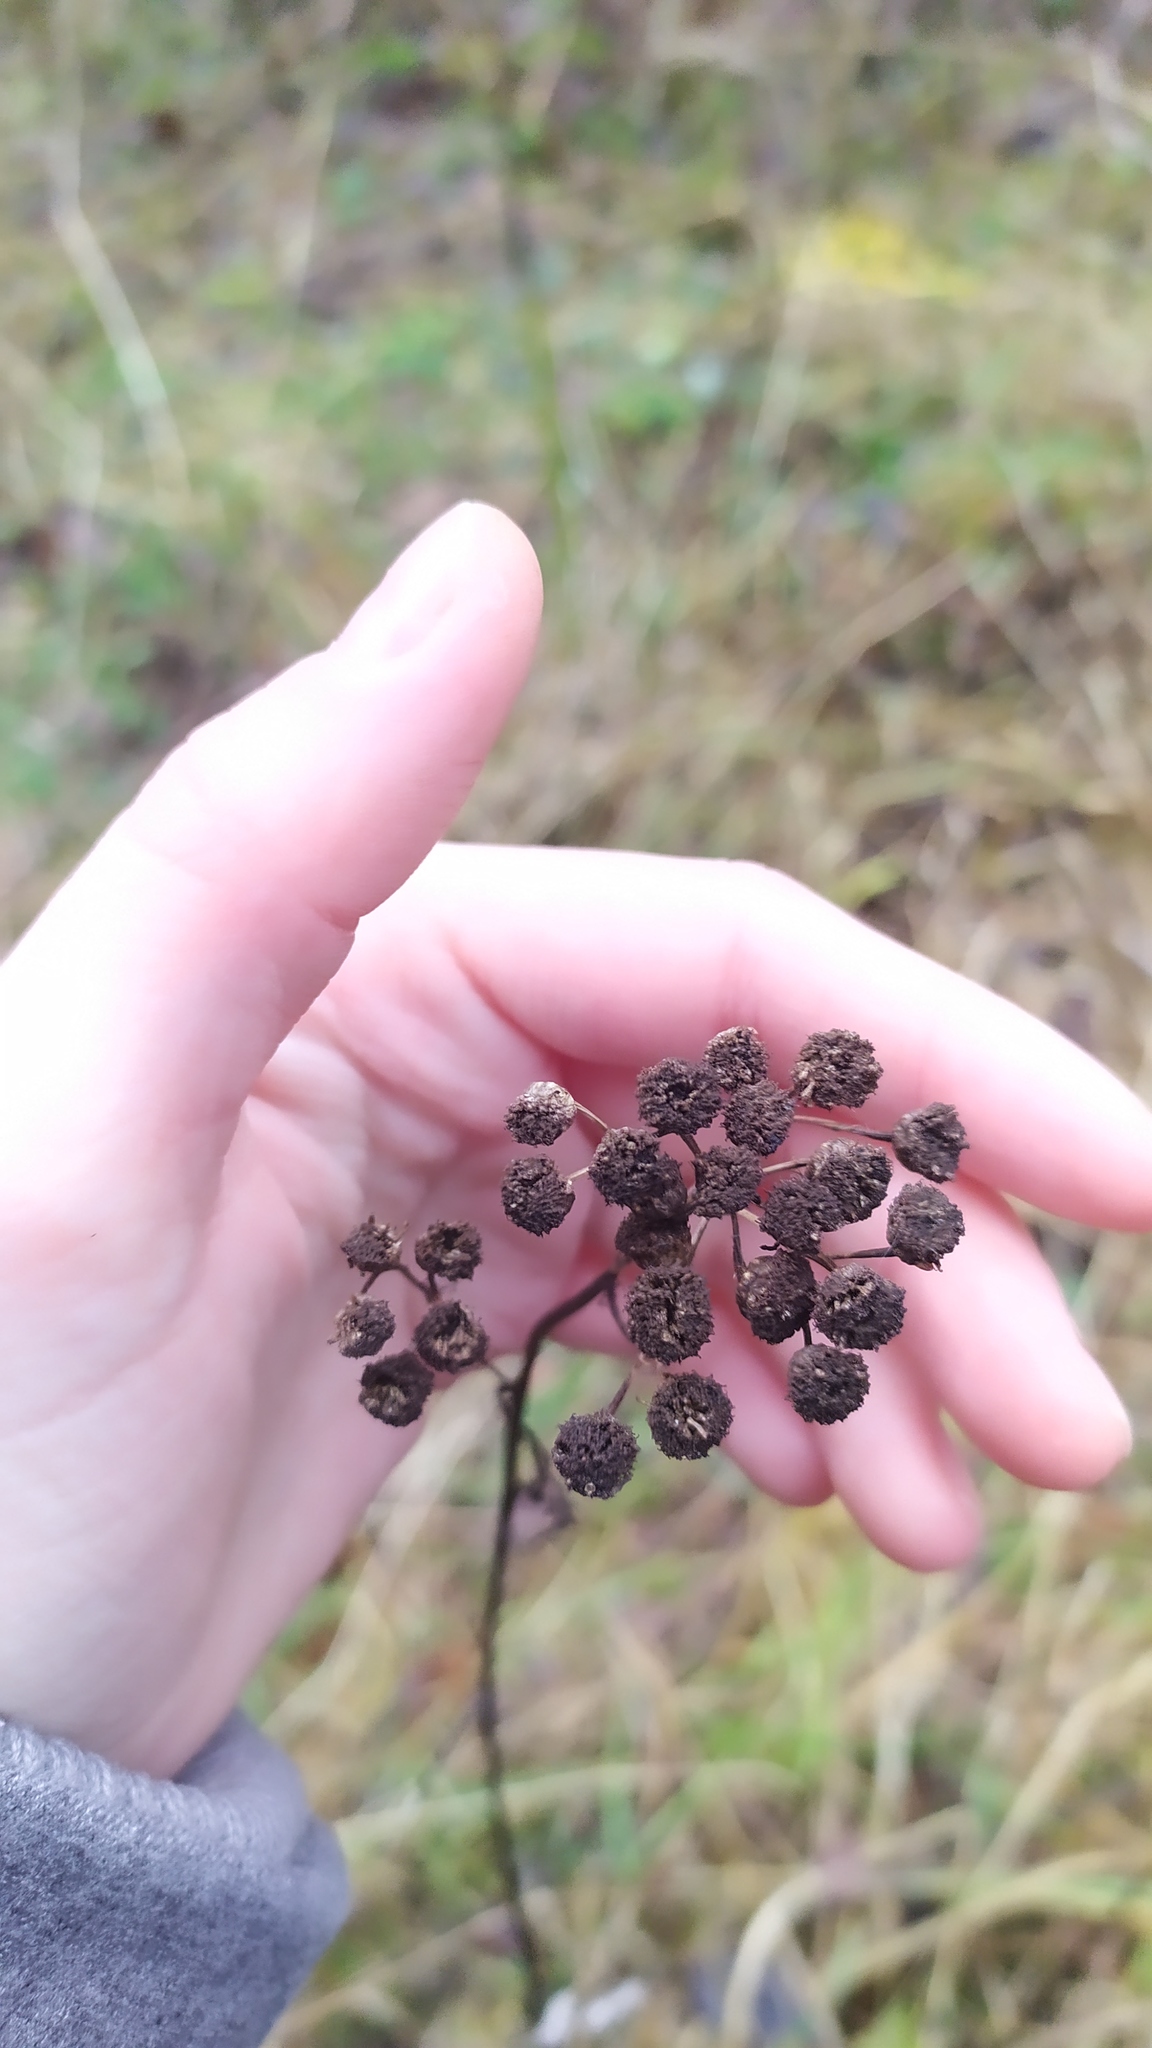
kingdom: Plantae
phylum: Tracheophyta
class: Magnoliopsida
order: Asterales
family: Asteraceae
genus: Tanacetum
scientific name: Tanacetum vulgare
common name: Common tansy
